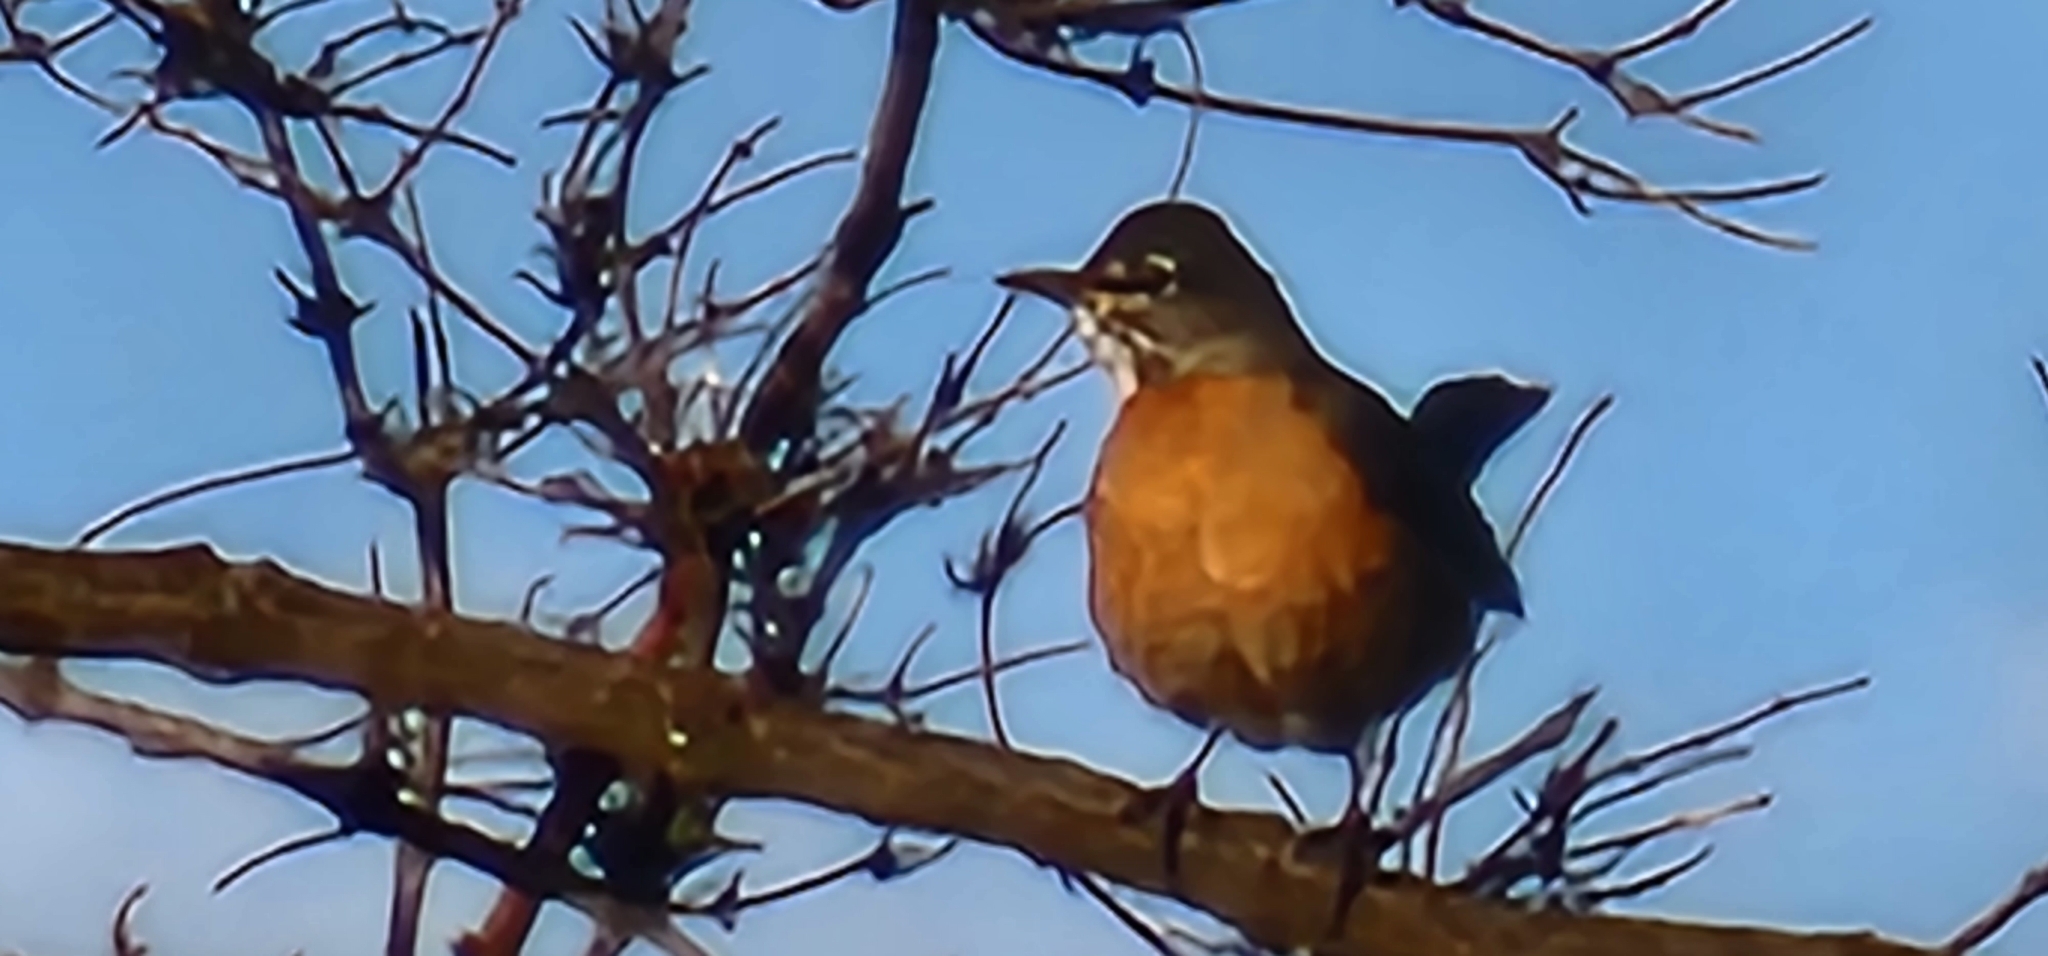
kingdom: Animalia
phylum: Chordata
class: Aves
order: Passeriformes
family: Turdidae
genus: Turdus
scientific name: Turdus migratorius
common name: American robin
